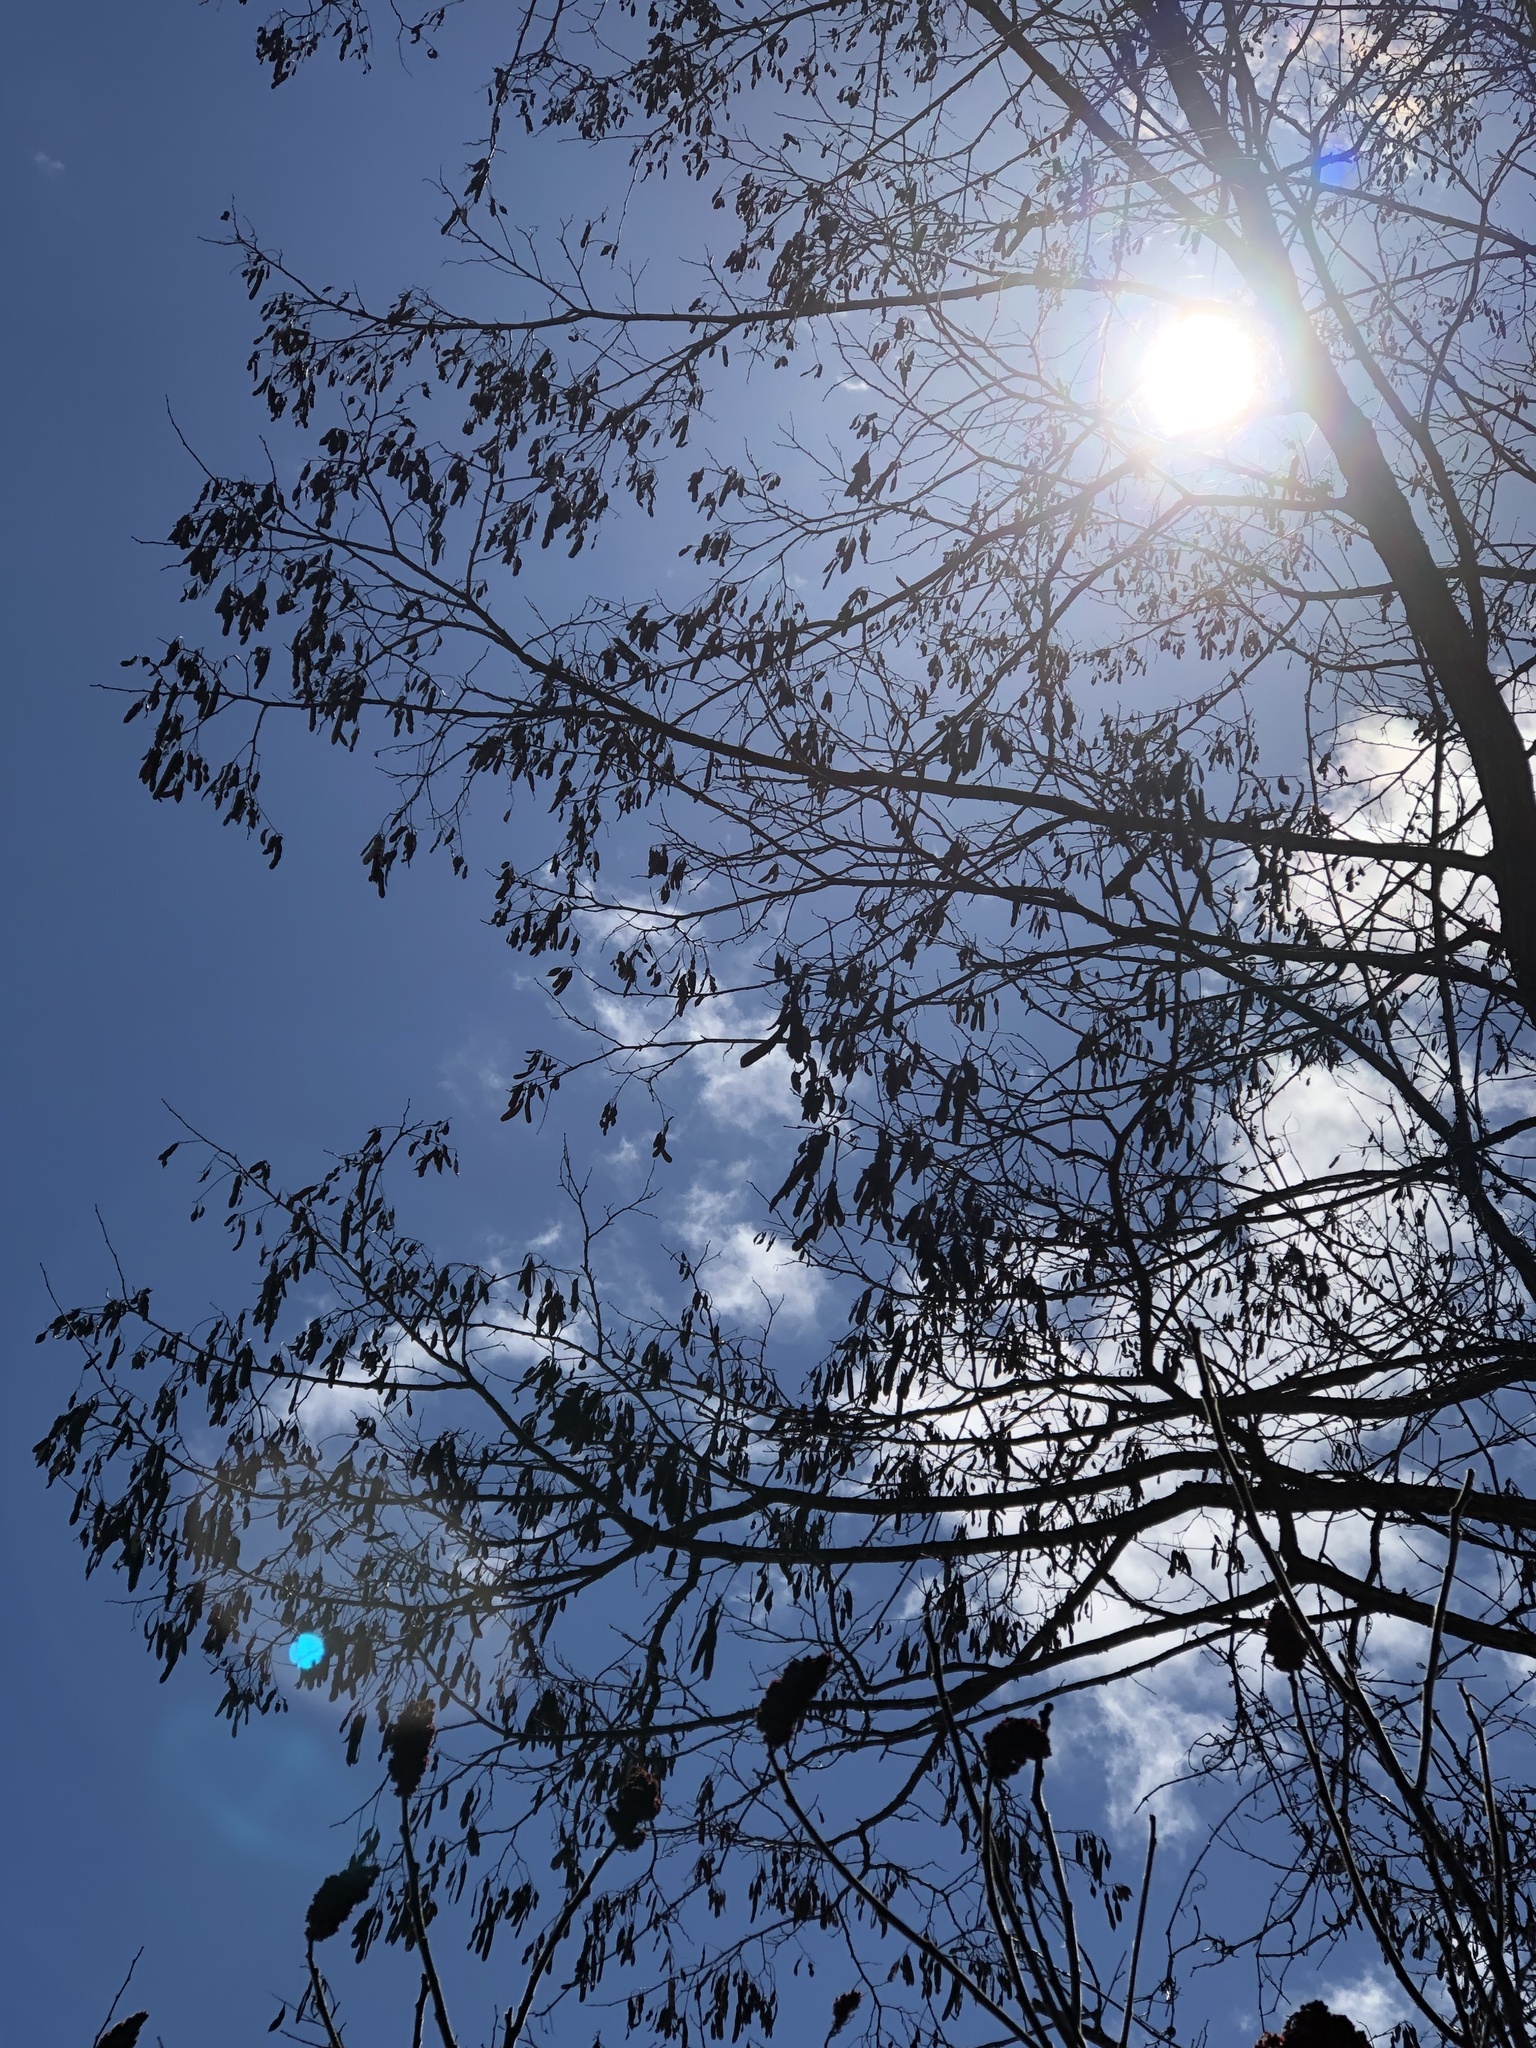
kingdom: Plantae
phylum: Tracheophyta
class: Magnoliopsida
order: Fabales
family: Fabaceae
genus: Robinia
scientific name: Robinia pseudoacacia
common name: Black locust
